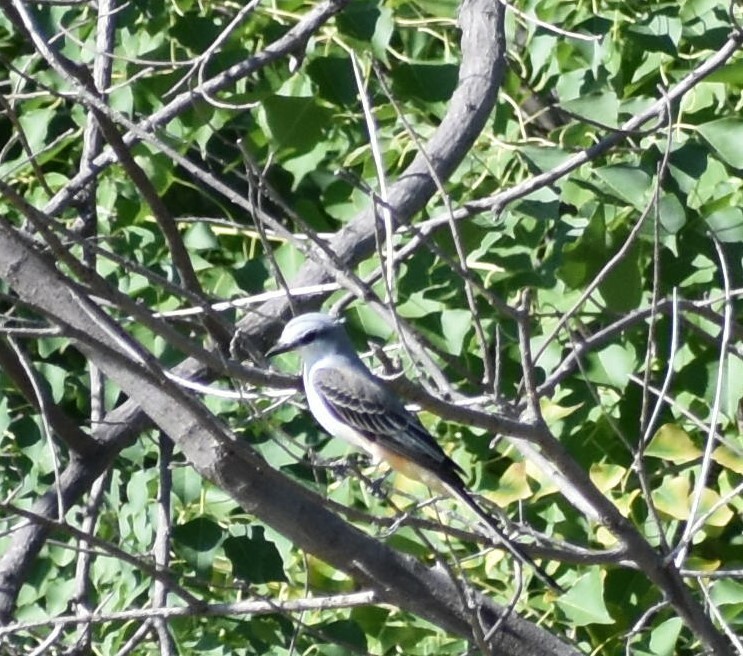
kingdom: Animalia
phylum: Chordata
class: Aves
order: Passeriformes
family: Tyrannidae
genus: Tyrannus
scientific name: Tyrannus forficatus
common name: Scissor-tailed flycatcher
